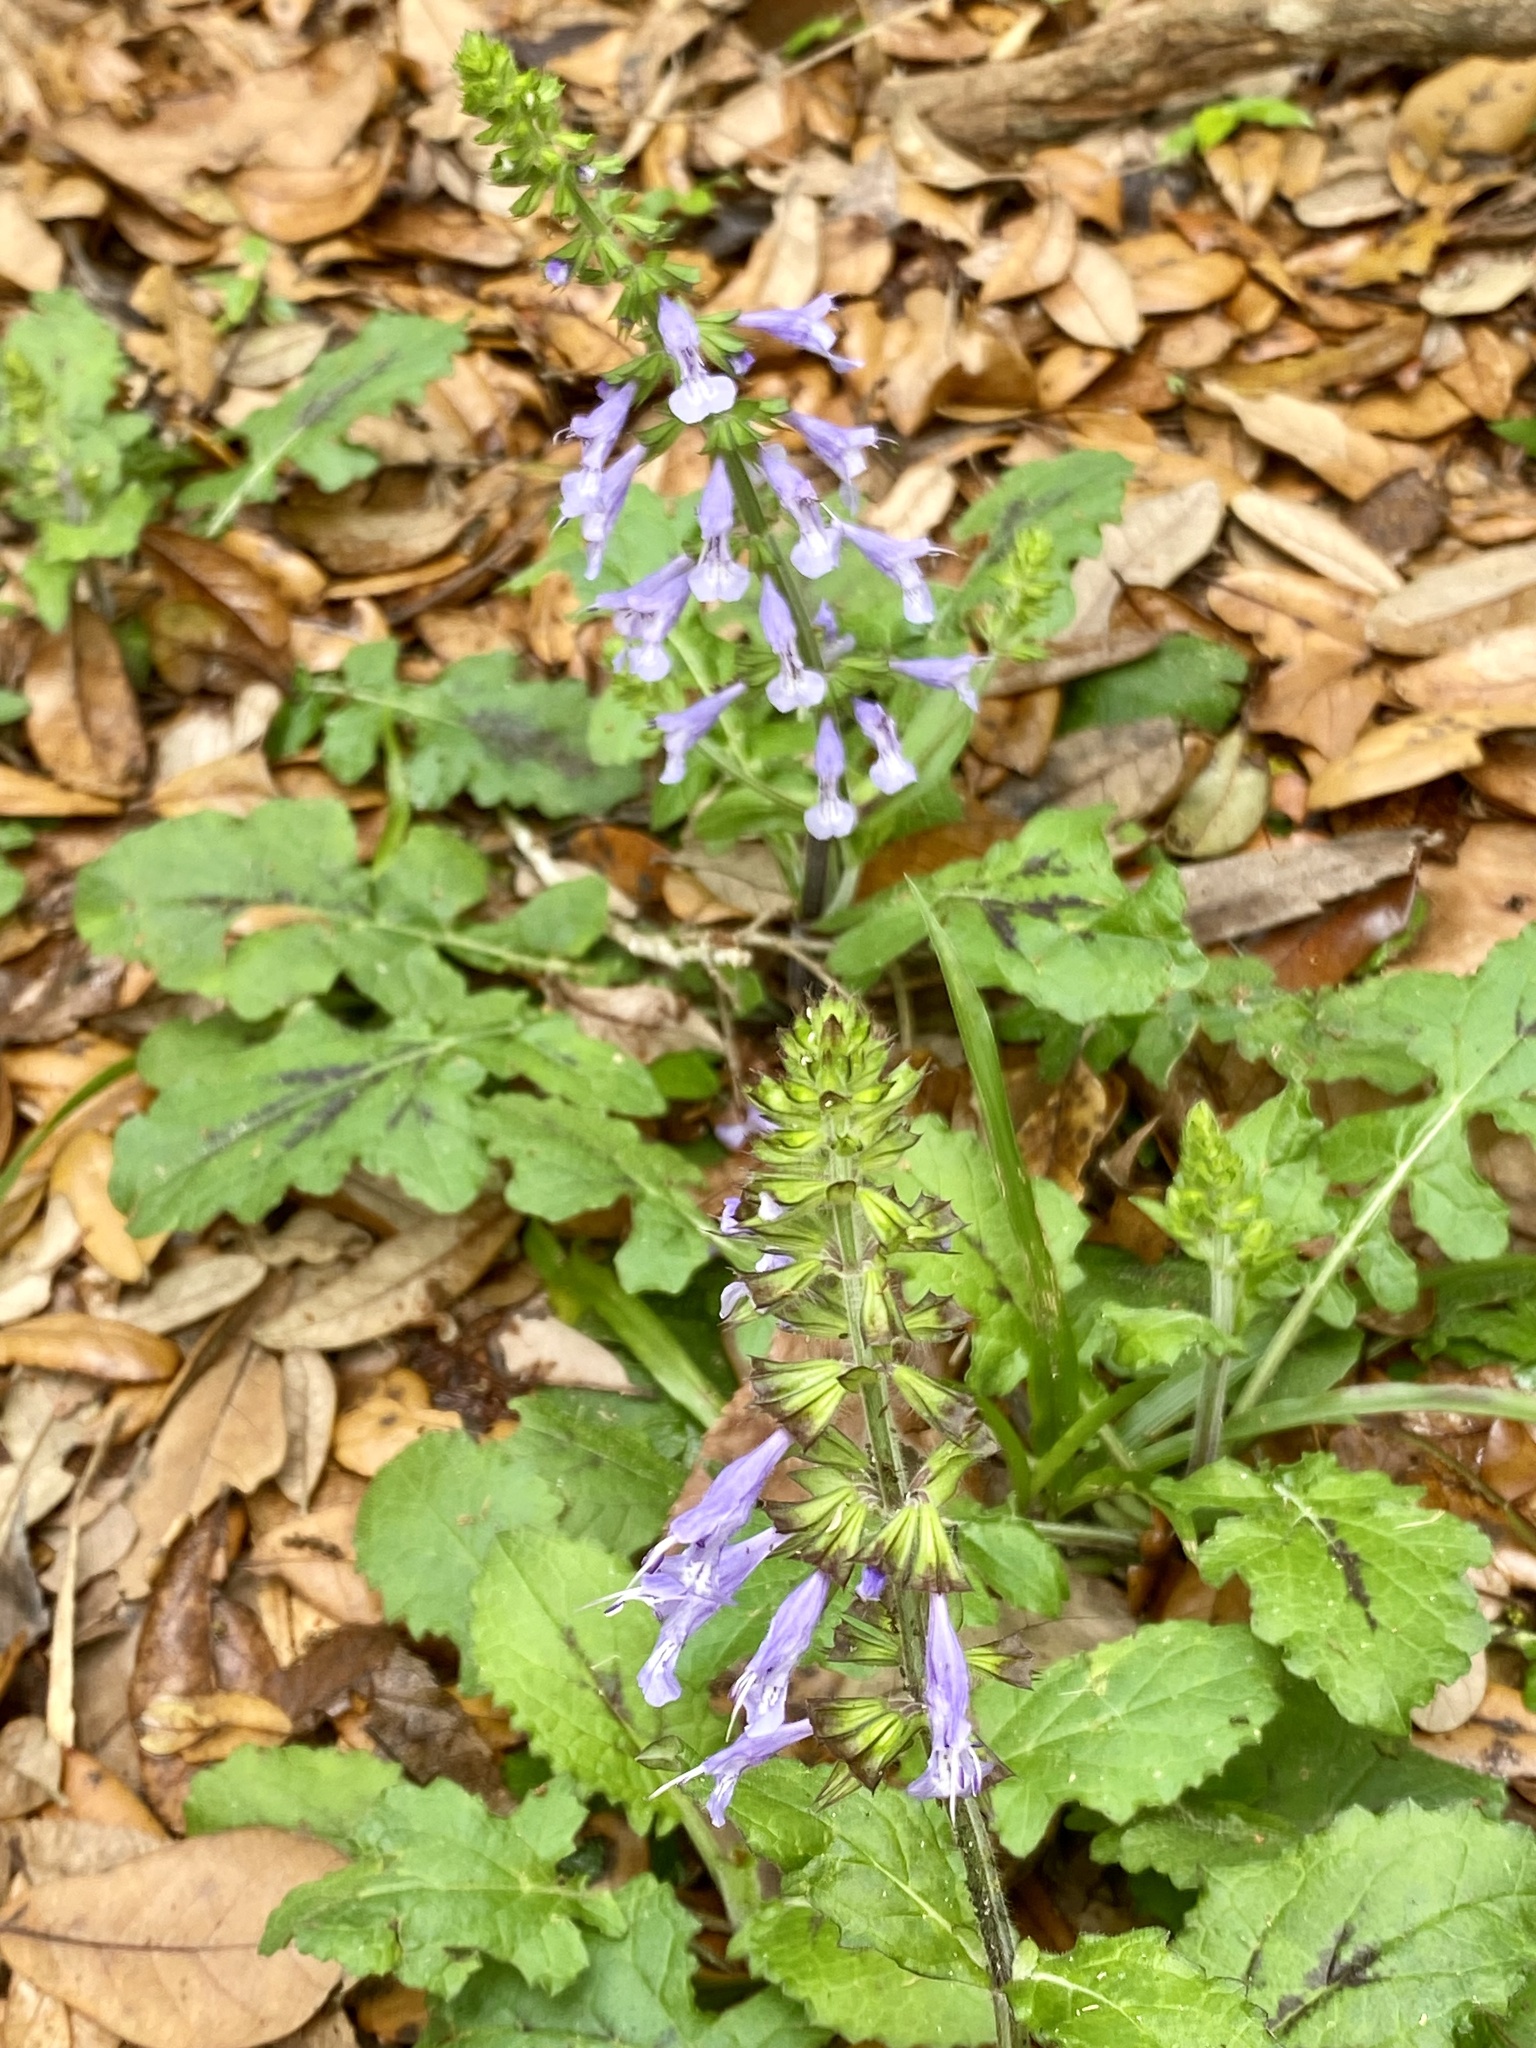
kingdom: Plantae
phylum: Tracheophyta
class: Magnoliopsida
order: Lamiales
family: Lamiaceae
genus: Salvia
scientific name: Salvia lyrata
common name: Cancerweed
